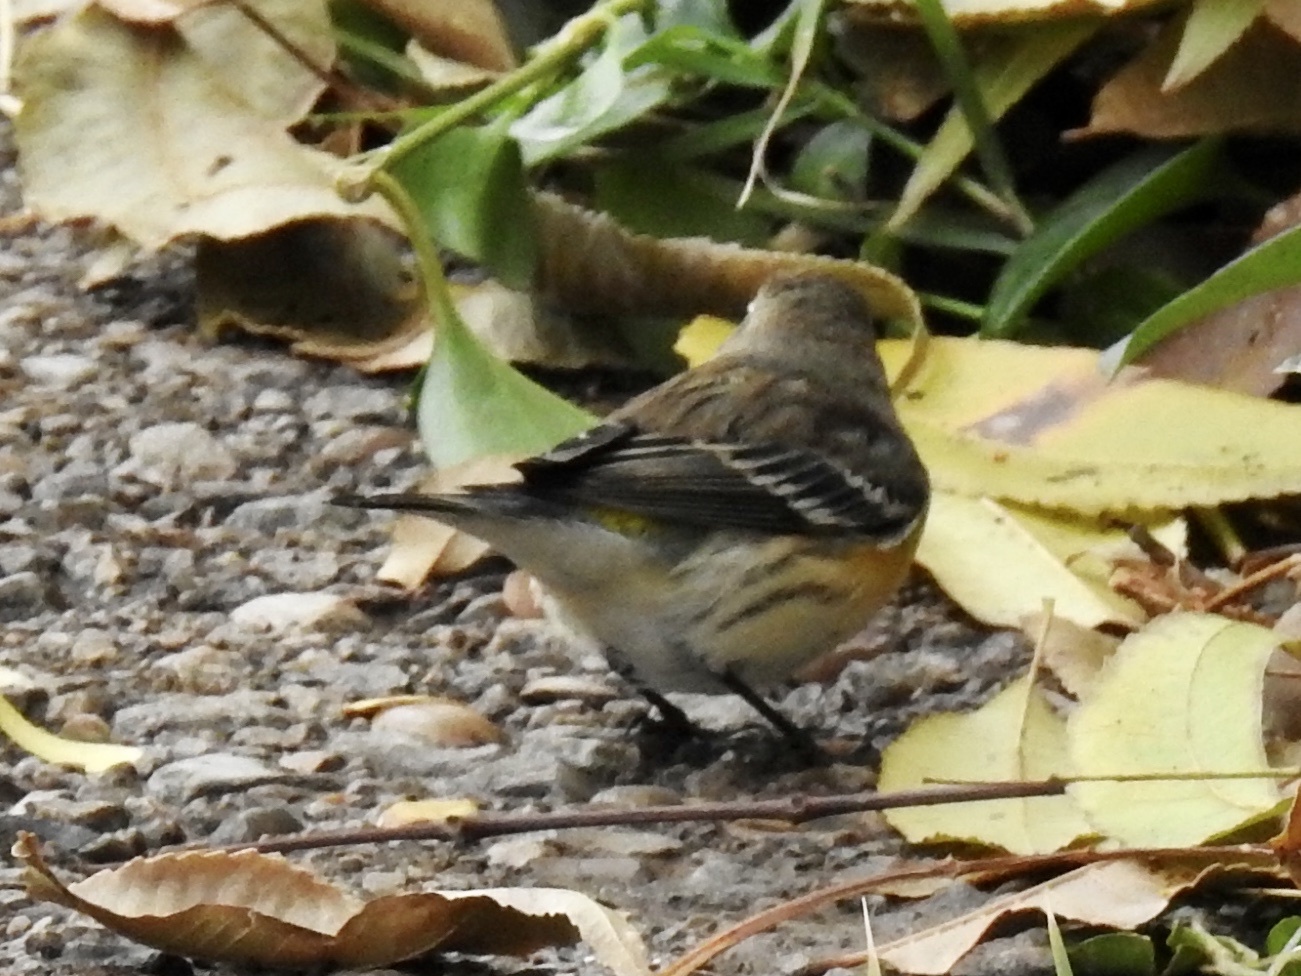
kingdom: Animalia
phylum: Chordata
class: Aves
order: Passeriformes
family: Parulidae
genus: Setophaga
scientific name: Setophaga coronata
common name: Myrtle warbler
